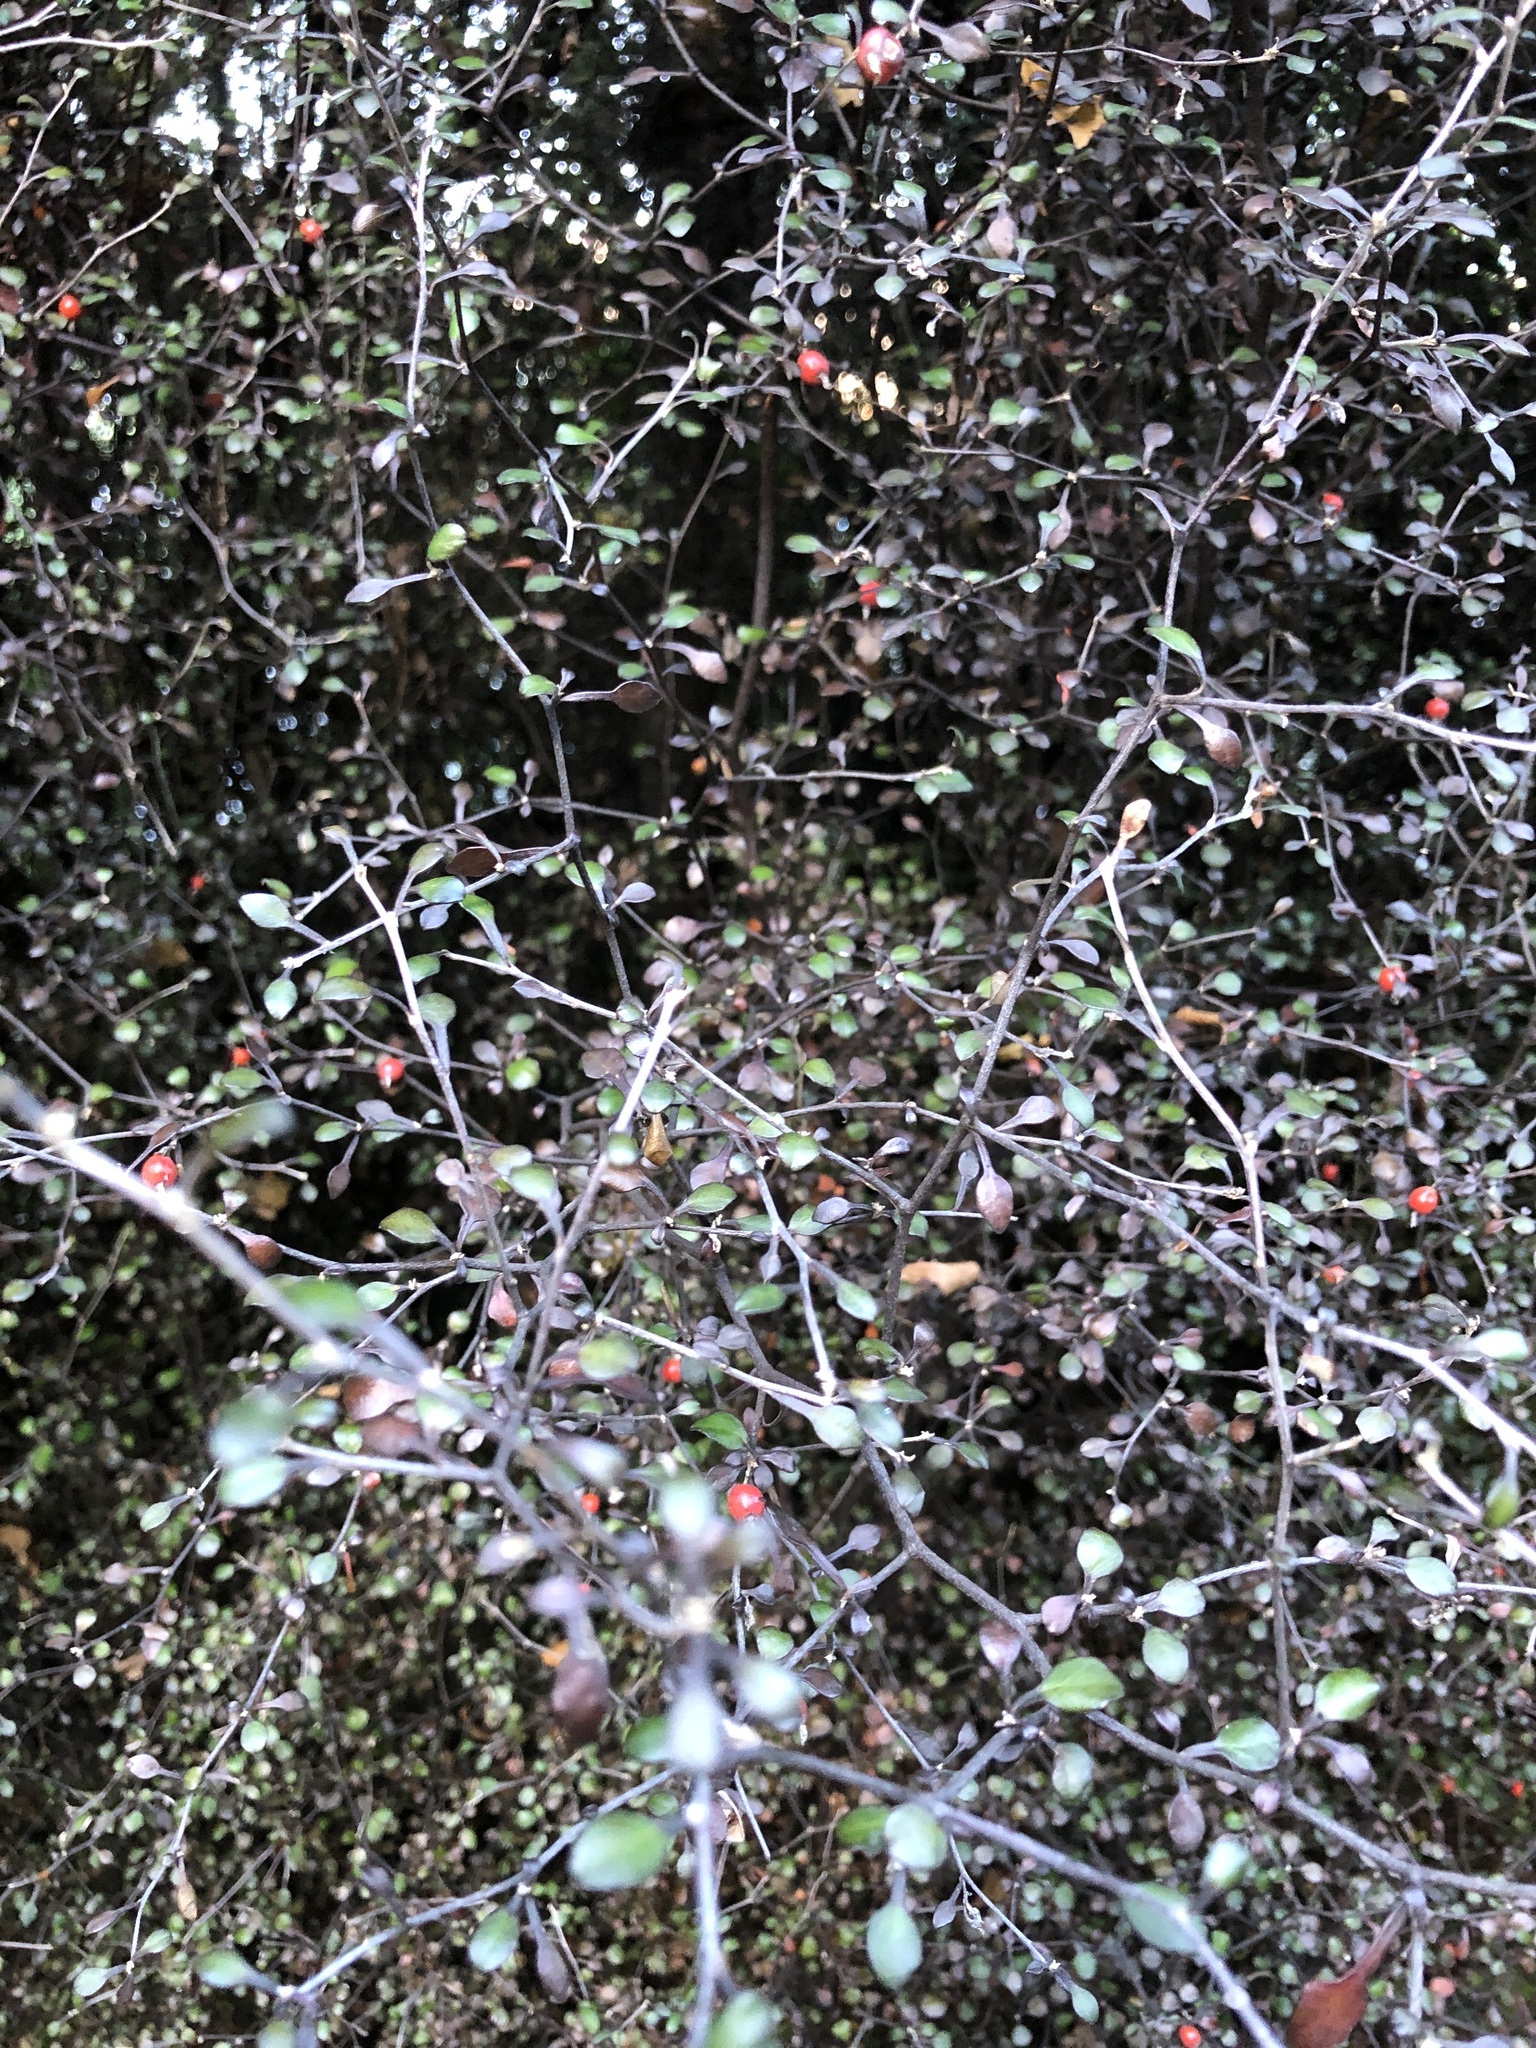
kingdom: Plantae
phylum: Tracheophyta
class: Magnoliopsida
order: Asterales
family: Argophyllaceae
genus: Corokia
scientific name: Corokia cotoneaster
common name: Wire nettingbush
